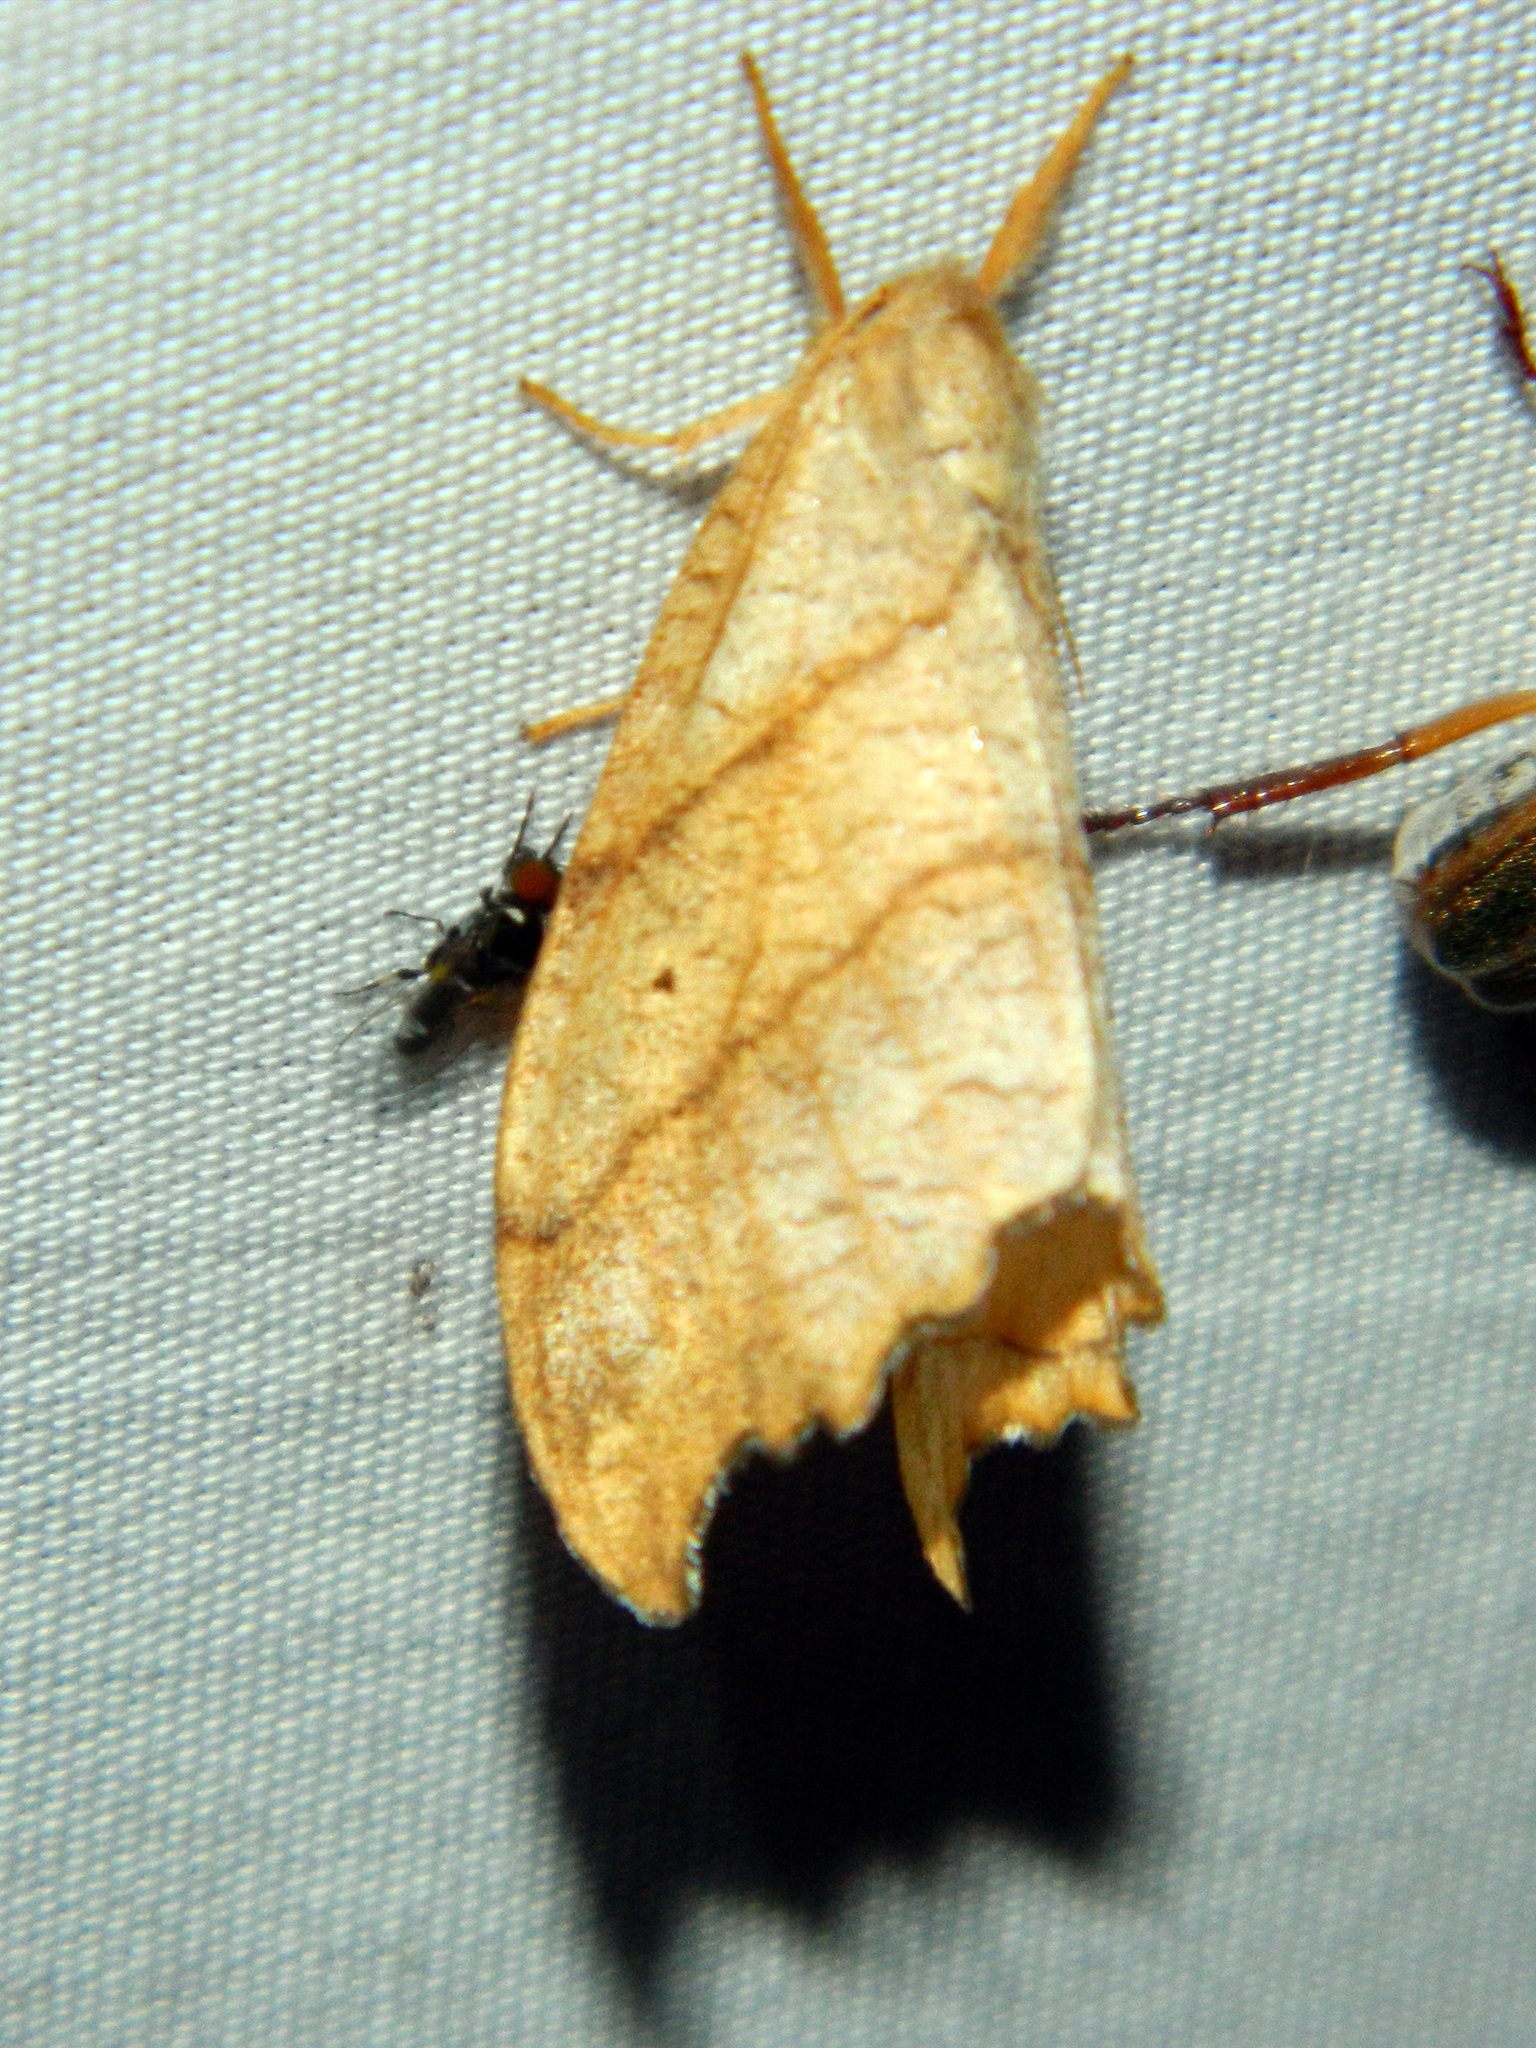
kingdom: Animalia
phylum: Arthropoda
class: Insecta
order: Lepidoptera
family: Drepanidae
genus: Falcaria
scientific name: Falcaria bilineata
